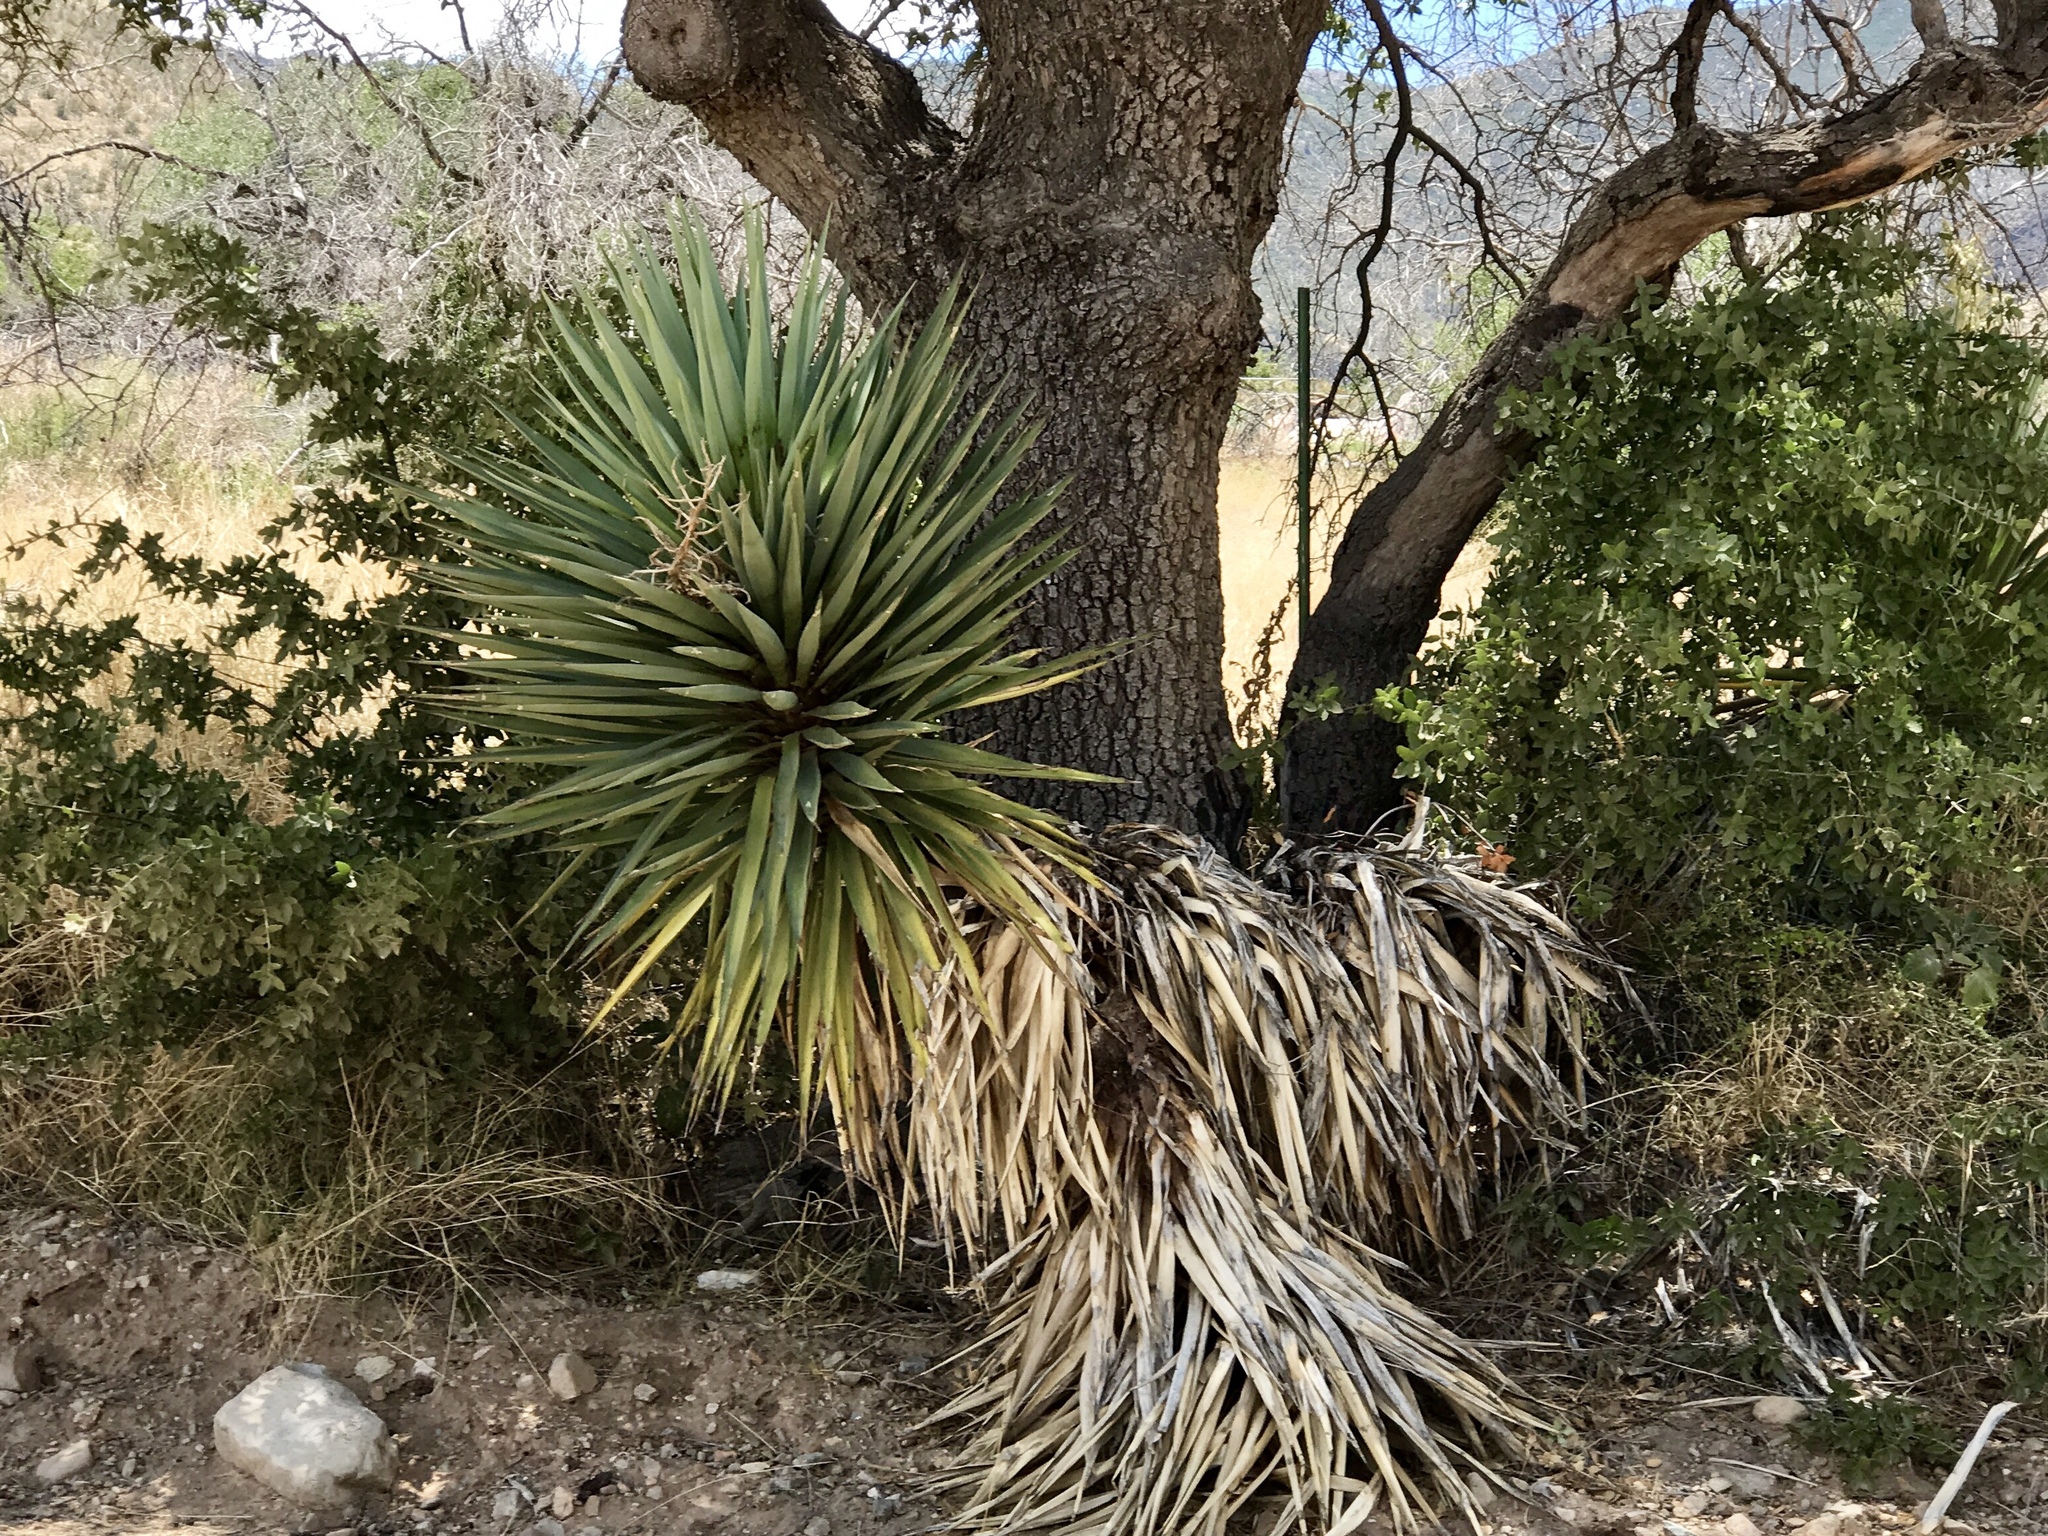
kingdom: Plantae
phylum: Tracheophyta
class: Liliopsida
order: Asparagales
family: Asparagaceae
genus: Yucca
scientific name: Yucca madrensis
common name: Hoary yucca
